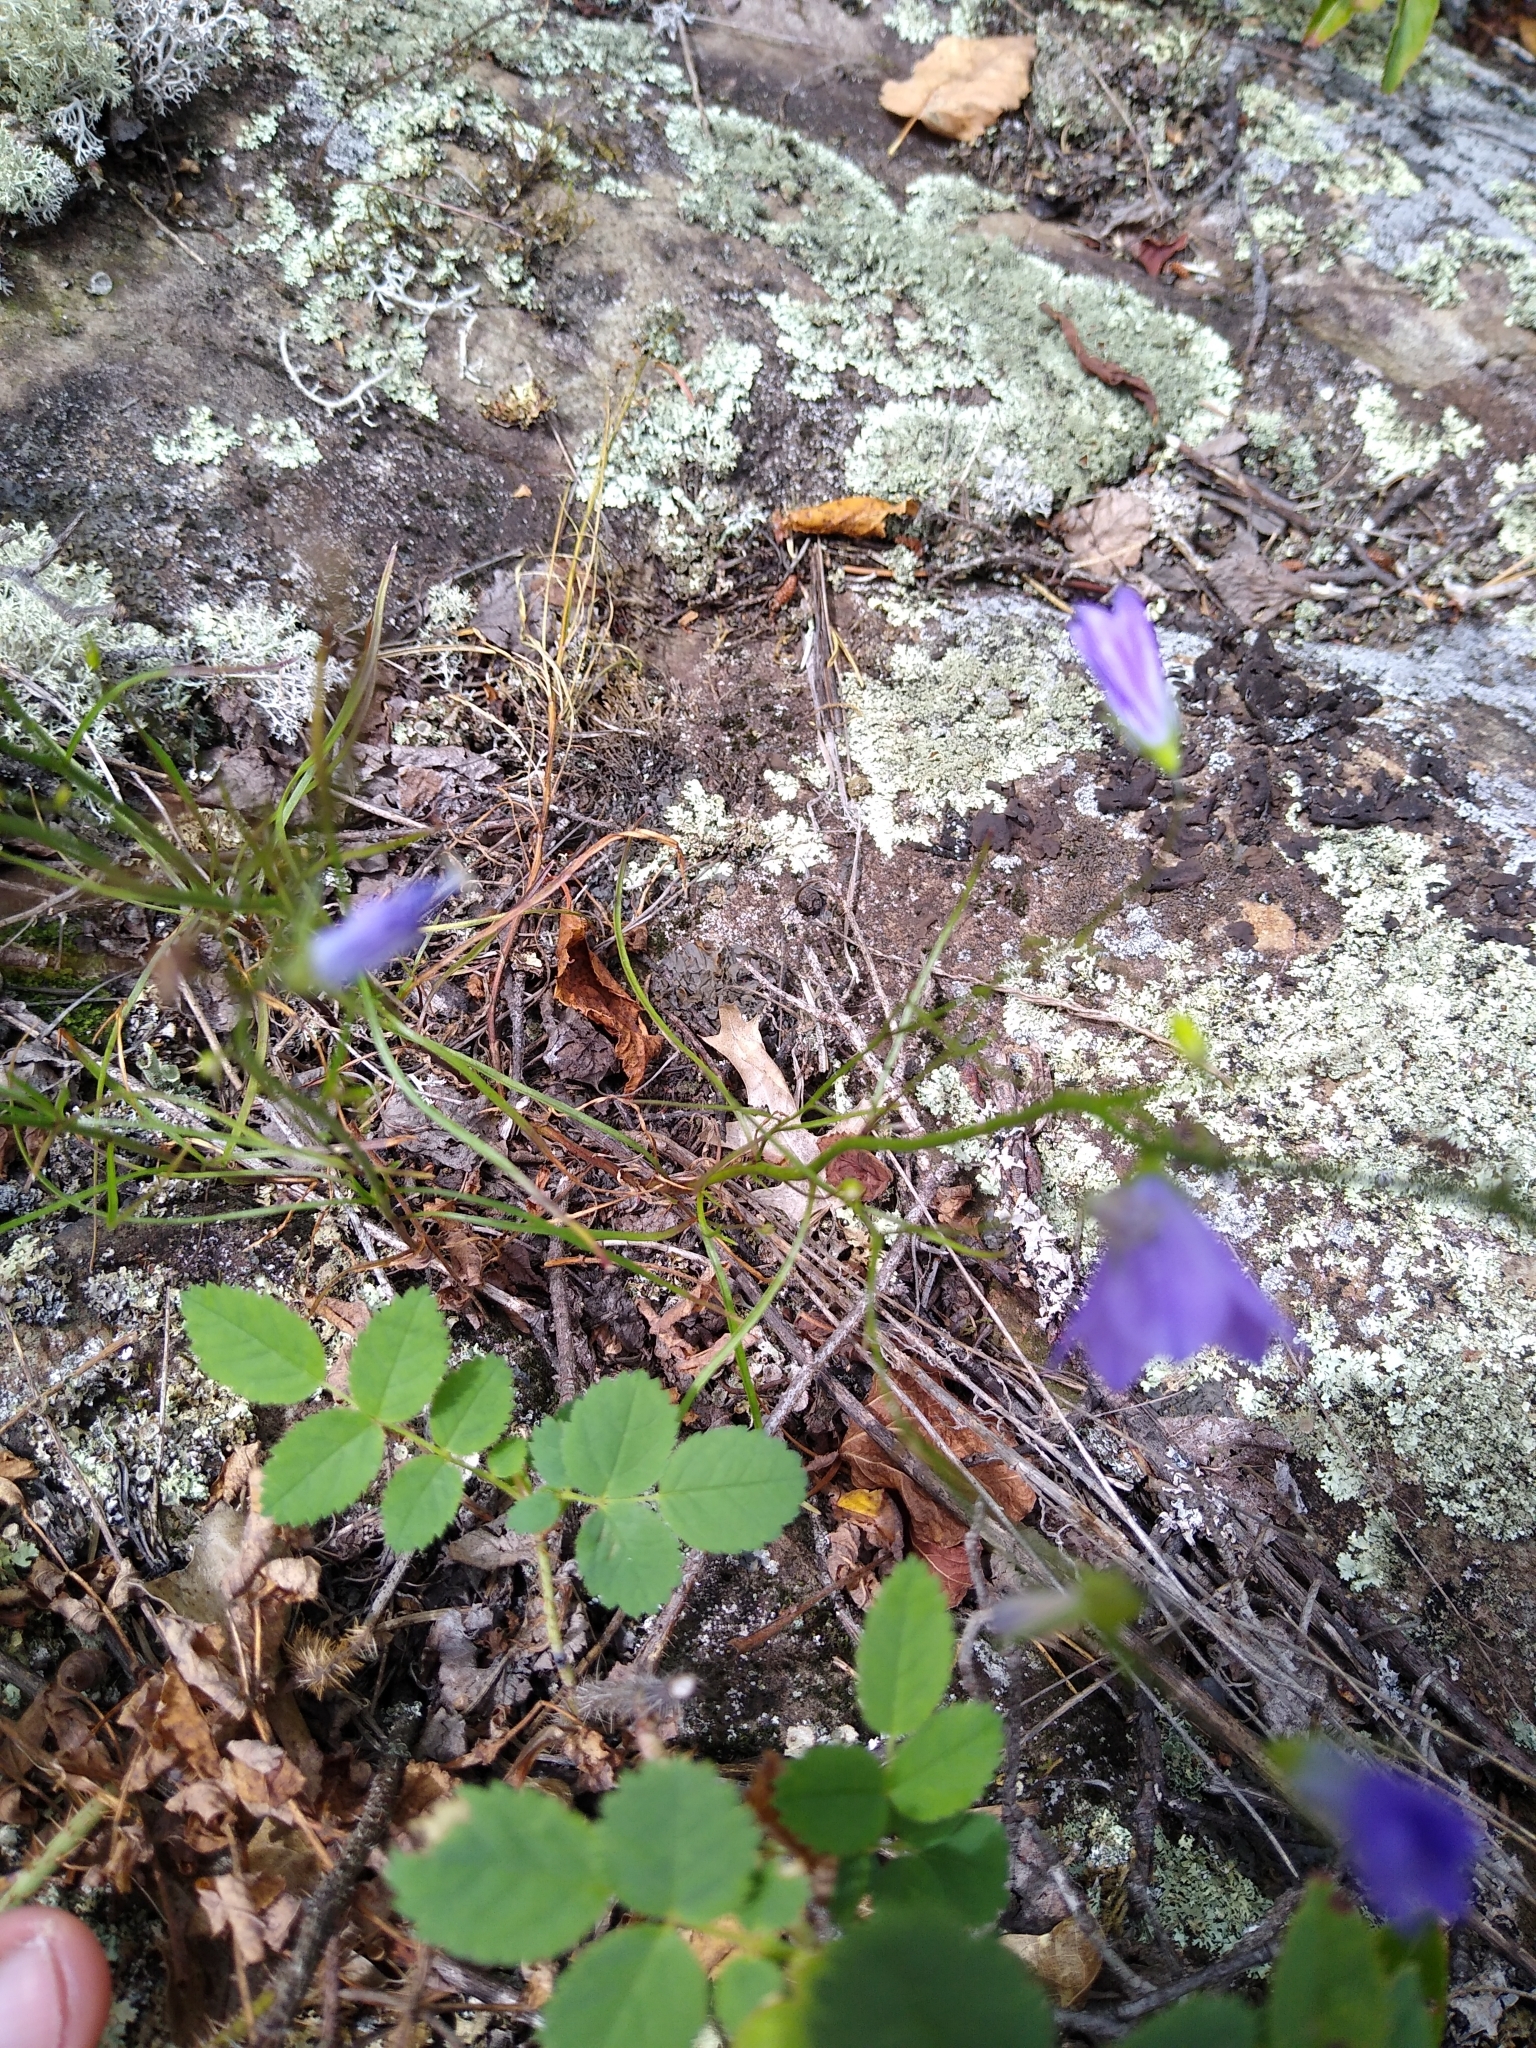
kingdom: Plantae
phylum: Tracheophyta
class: Magnoliopsida
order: Asterales
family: Campanulaceae
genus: Campanula
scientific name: Campanula intercedens
